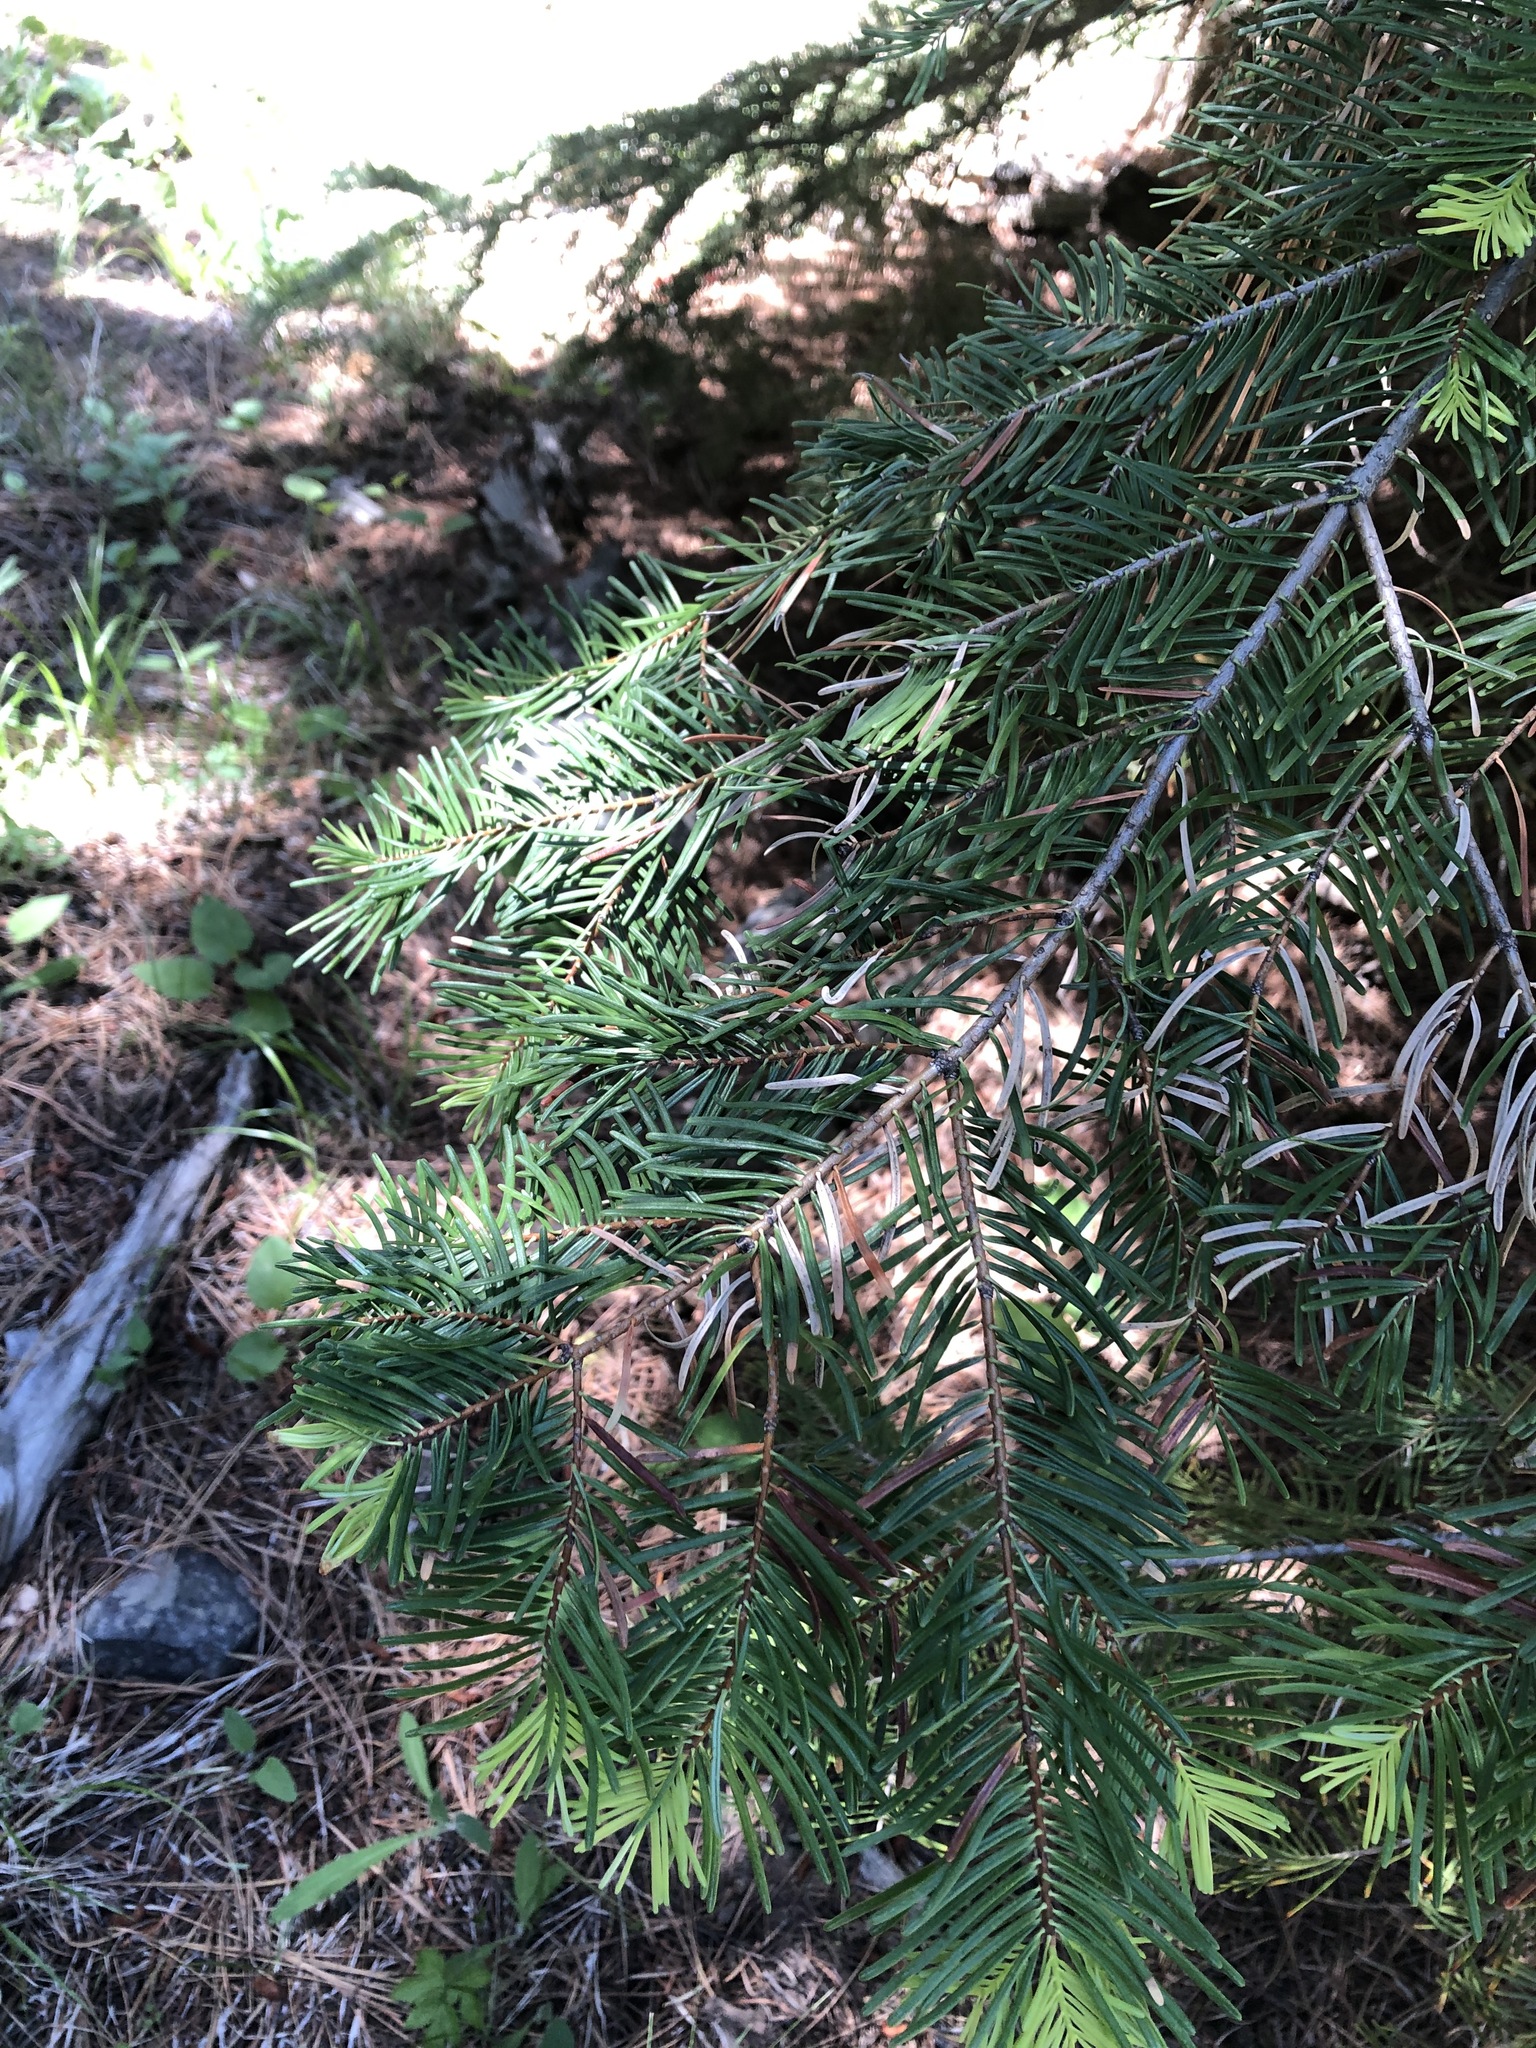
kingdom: Plantae
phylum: Tracheophyta
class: Pinopsida
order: Pinales
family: Pinaceae
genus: Abies
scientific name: Abies concolor
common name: Colorado fir
